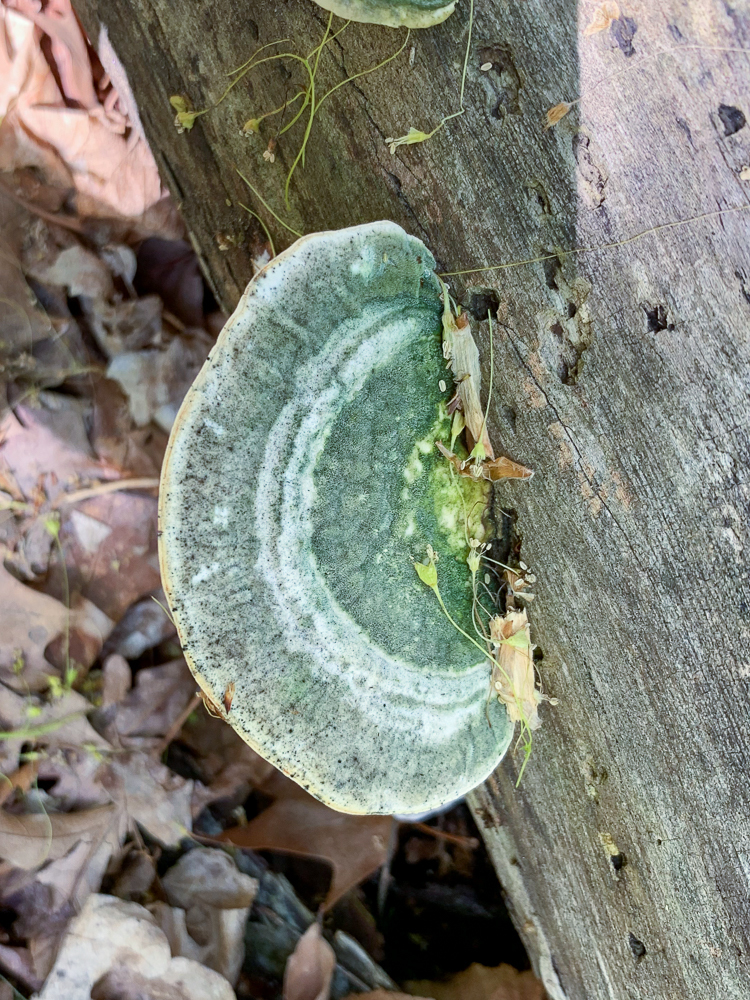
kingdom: Fungi
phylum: Basidiomycota
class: Agaricomycetes
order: Polyporales
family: Polyporaceae
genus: Trametes
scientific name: Trametes gibbosa
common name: Lumpy bracket
